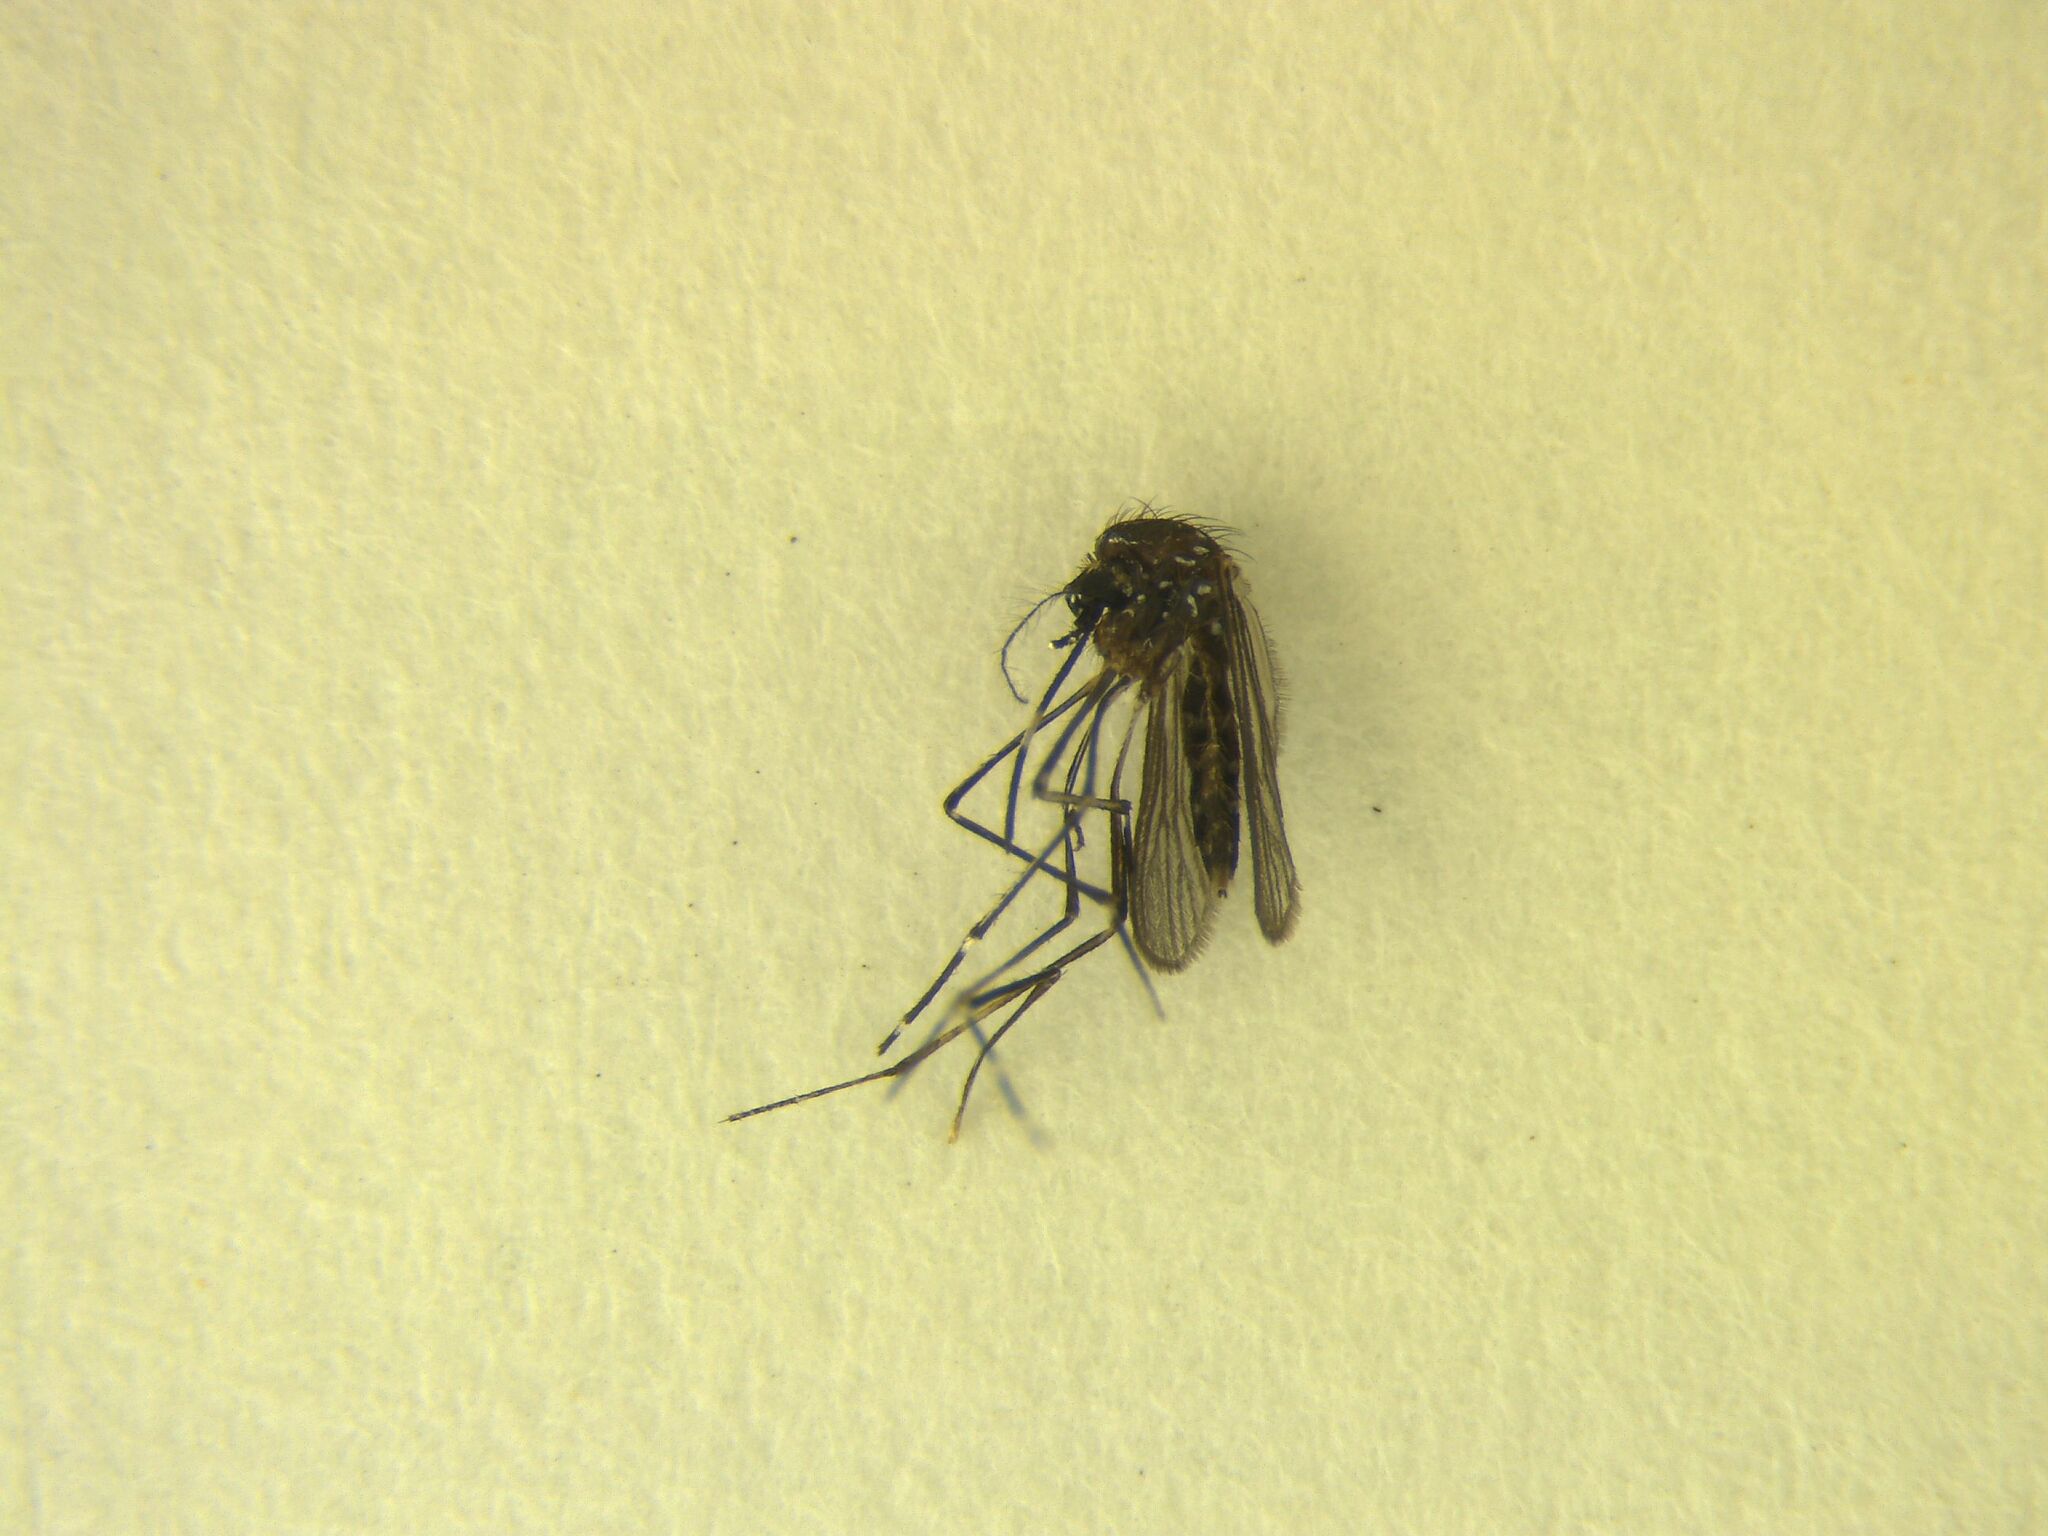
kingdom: Animalia
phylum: Arthropoda
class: Insecta
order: Diptera
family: Culicidae
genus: Aedes
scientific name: Aedes notoscriptus
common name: Australian backyard mosquito
